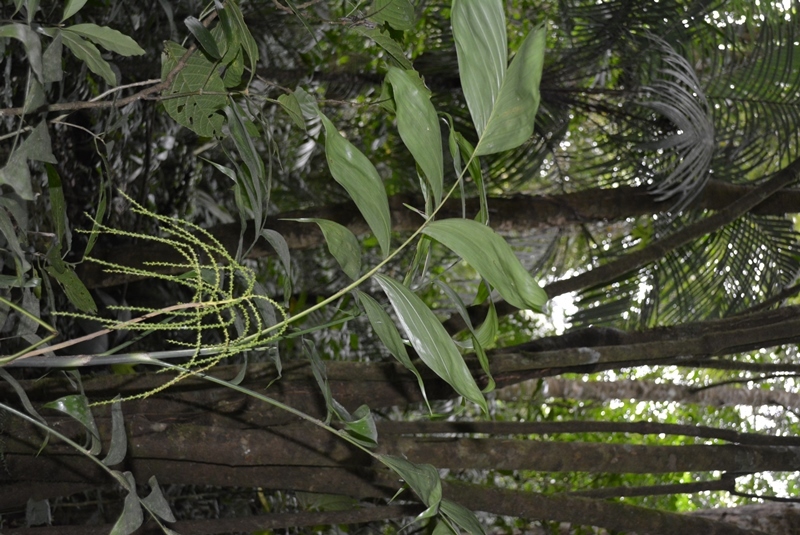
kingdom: Plantae
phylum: Tracheophyta
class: Liliopsida
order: Arecales
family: Arecaceae
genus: Chamaedorea
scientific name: Chamaedorea pinnatifrons
